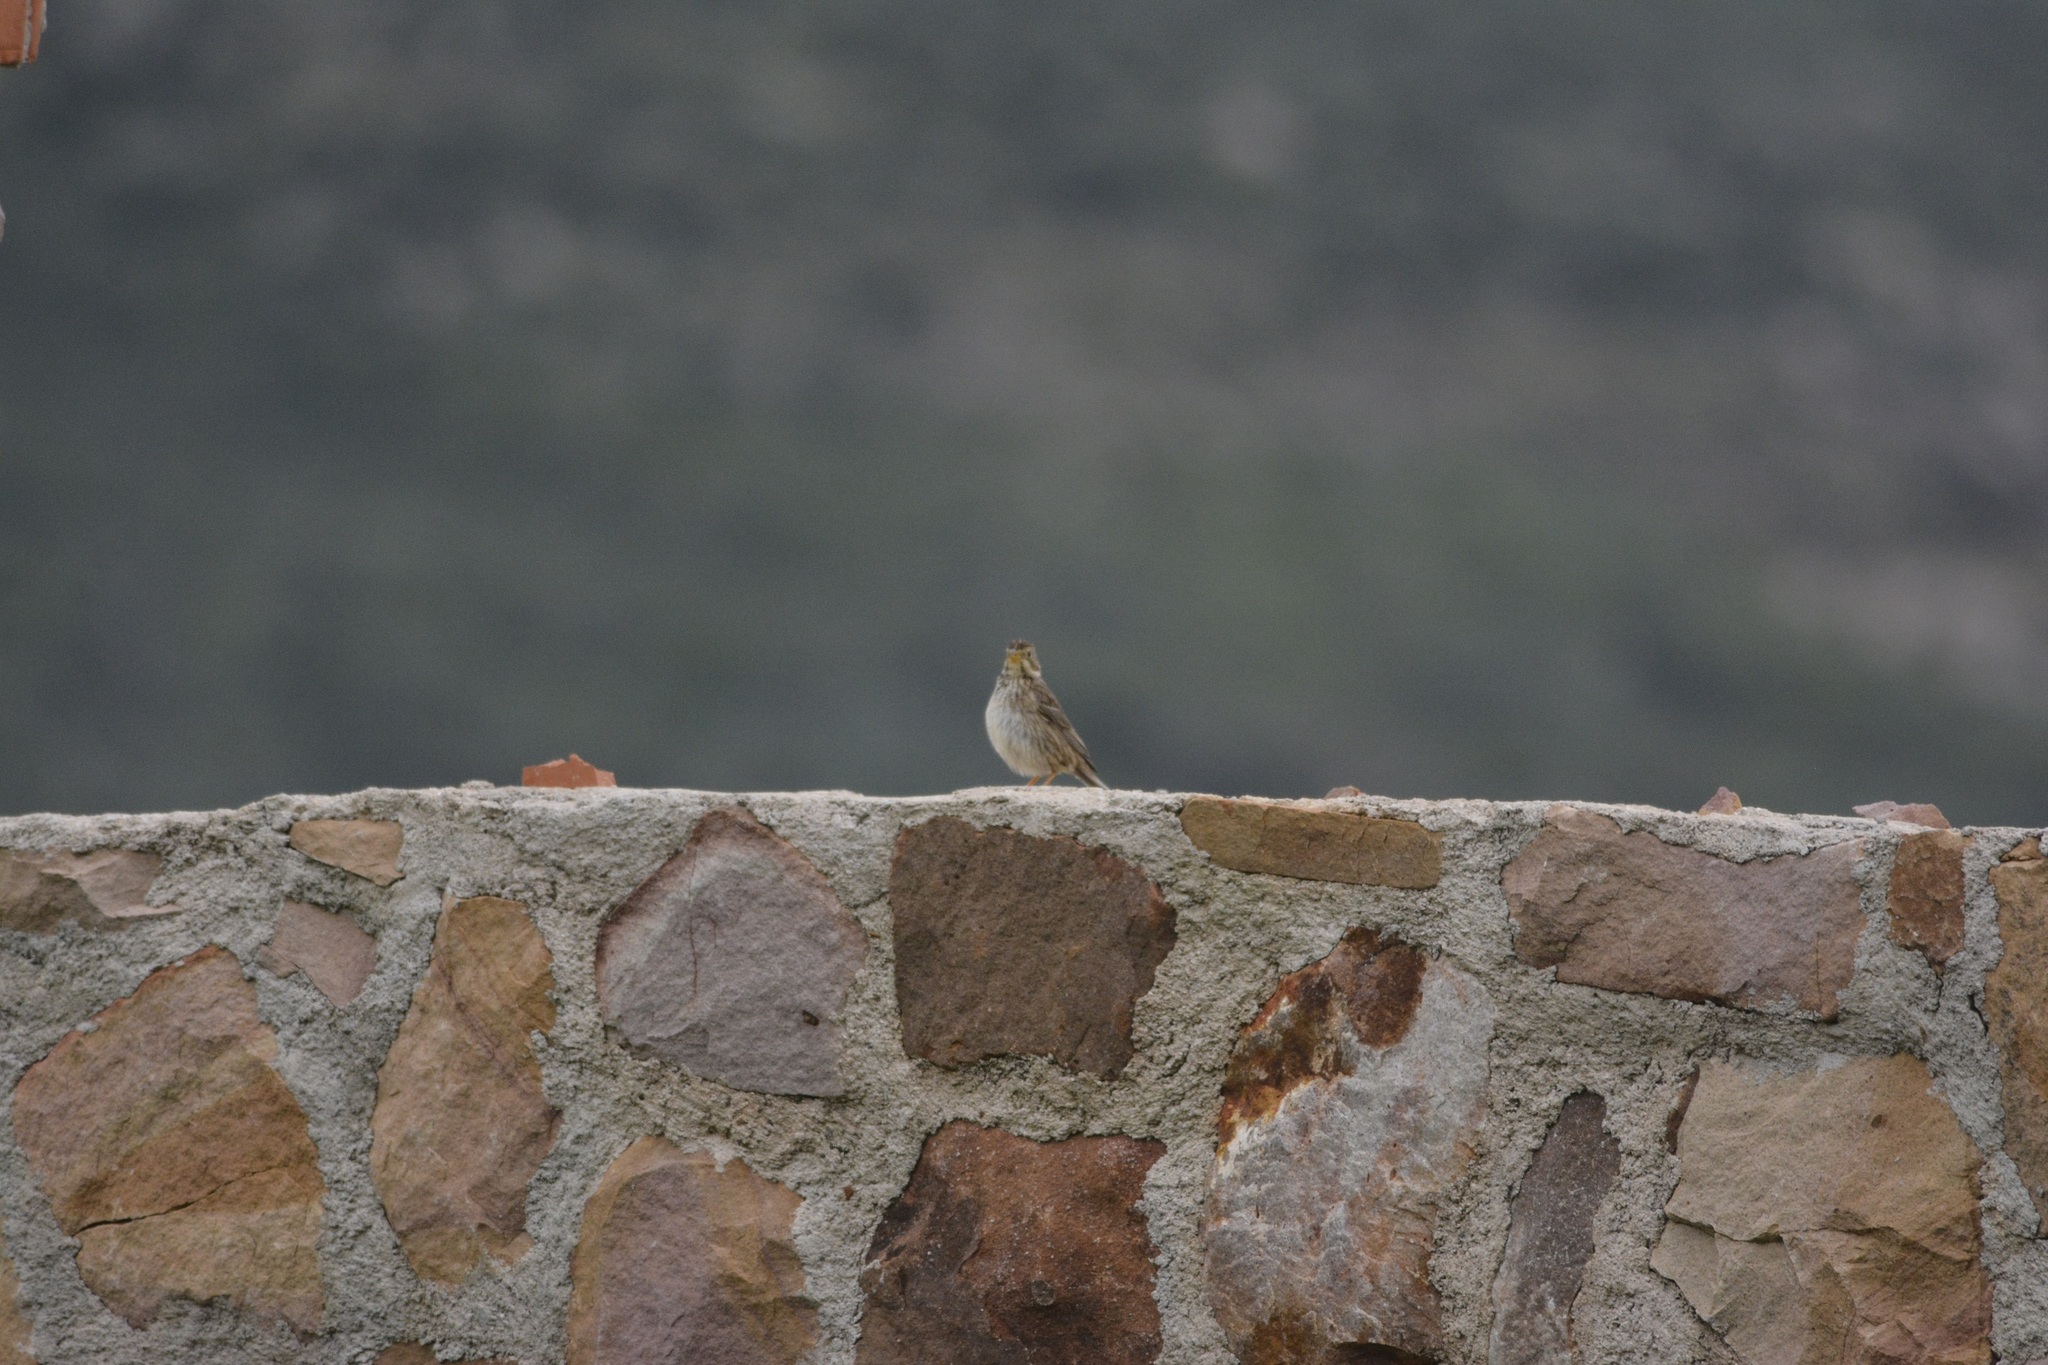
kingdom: Animalia
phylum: Chordata
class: Aves
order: Passeriformes
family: Emberizidae
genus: Emberiza
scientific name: Emberiza calandra
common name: Corn bunting
